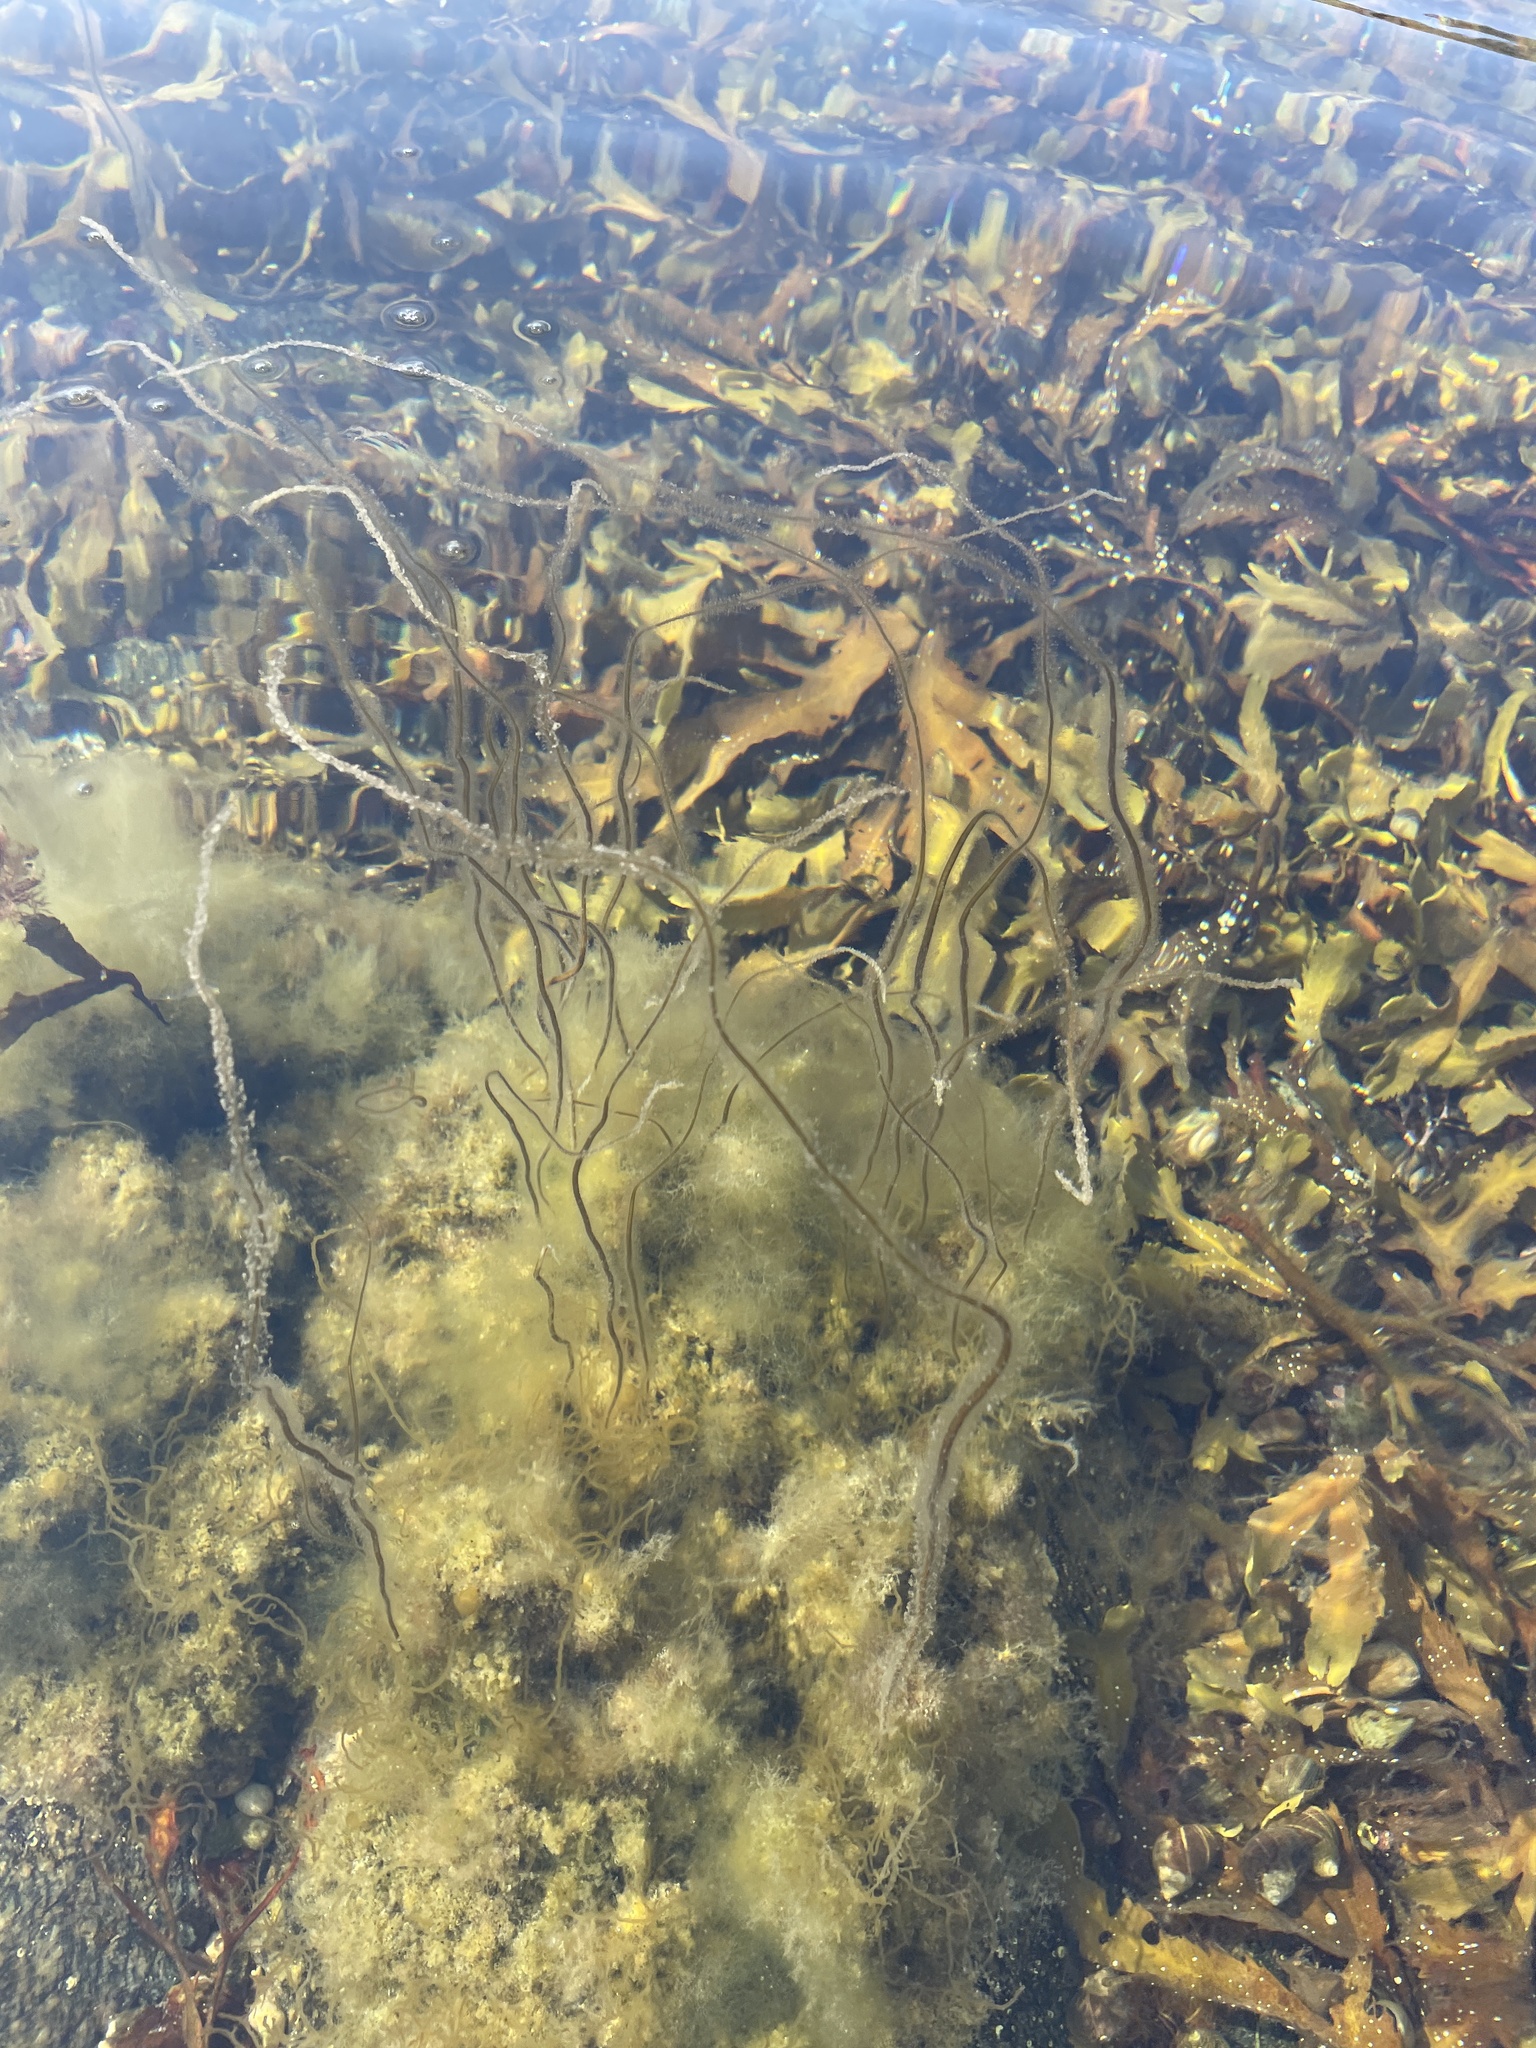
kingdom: Chromista
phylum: Ochrophyta
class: Phaeophyceae
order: Laminariales
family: Chordaceae
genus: Chorda
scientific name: Chorda filum
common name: Mermaid's tresses
